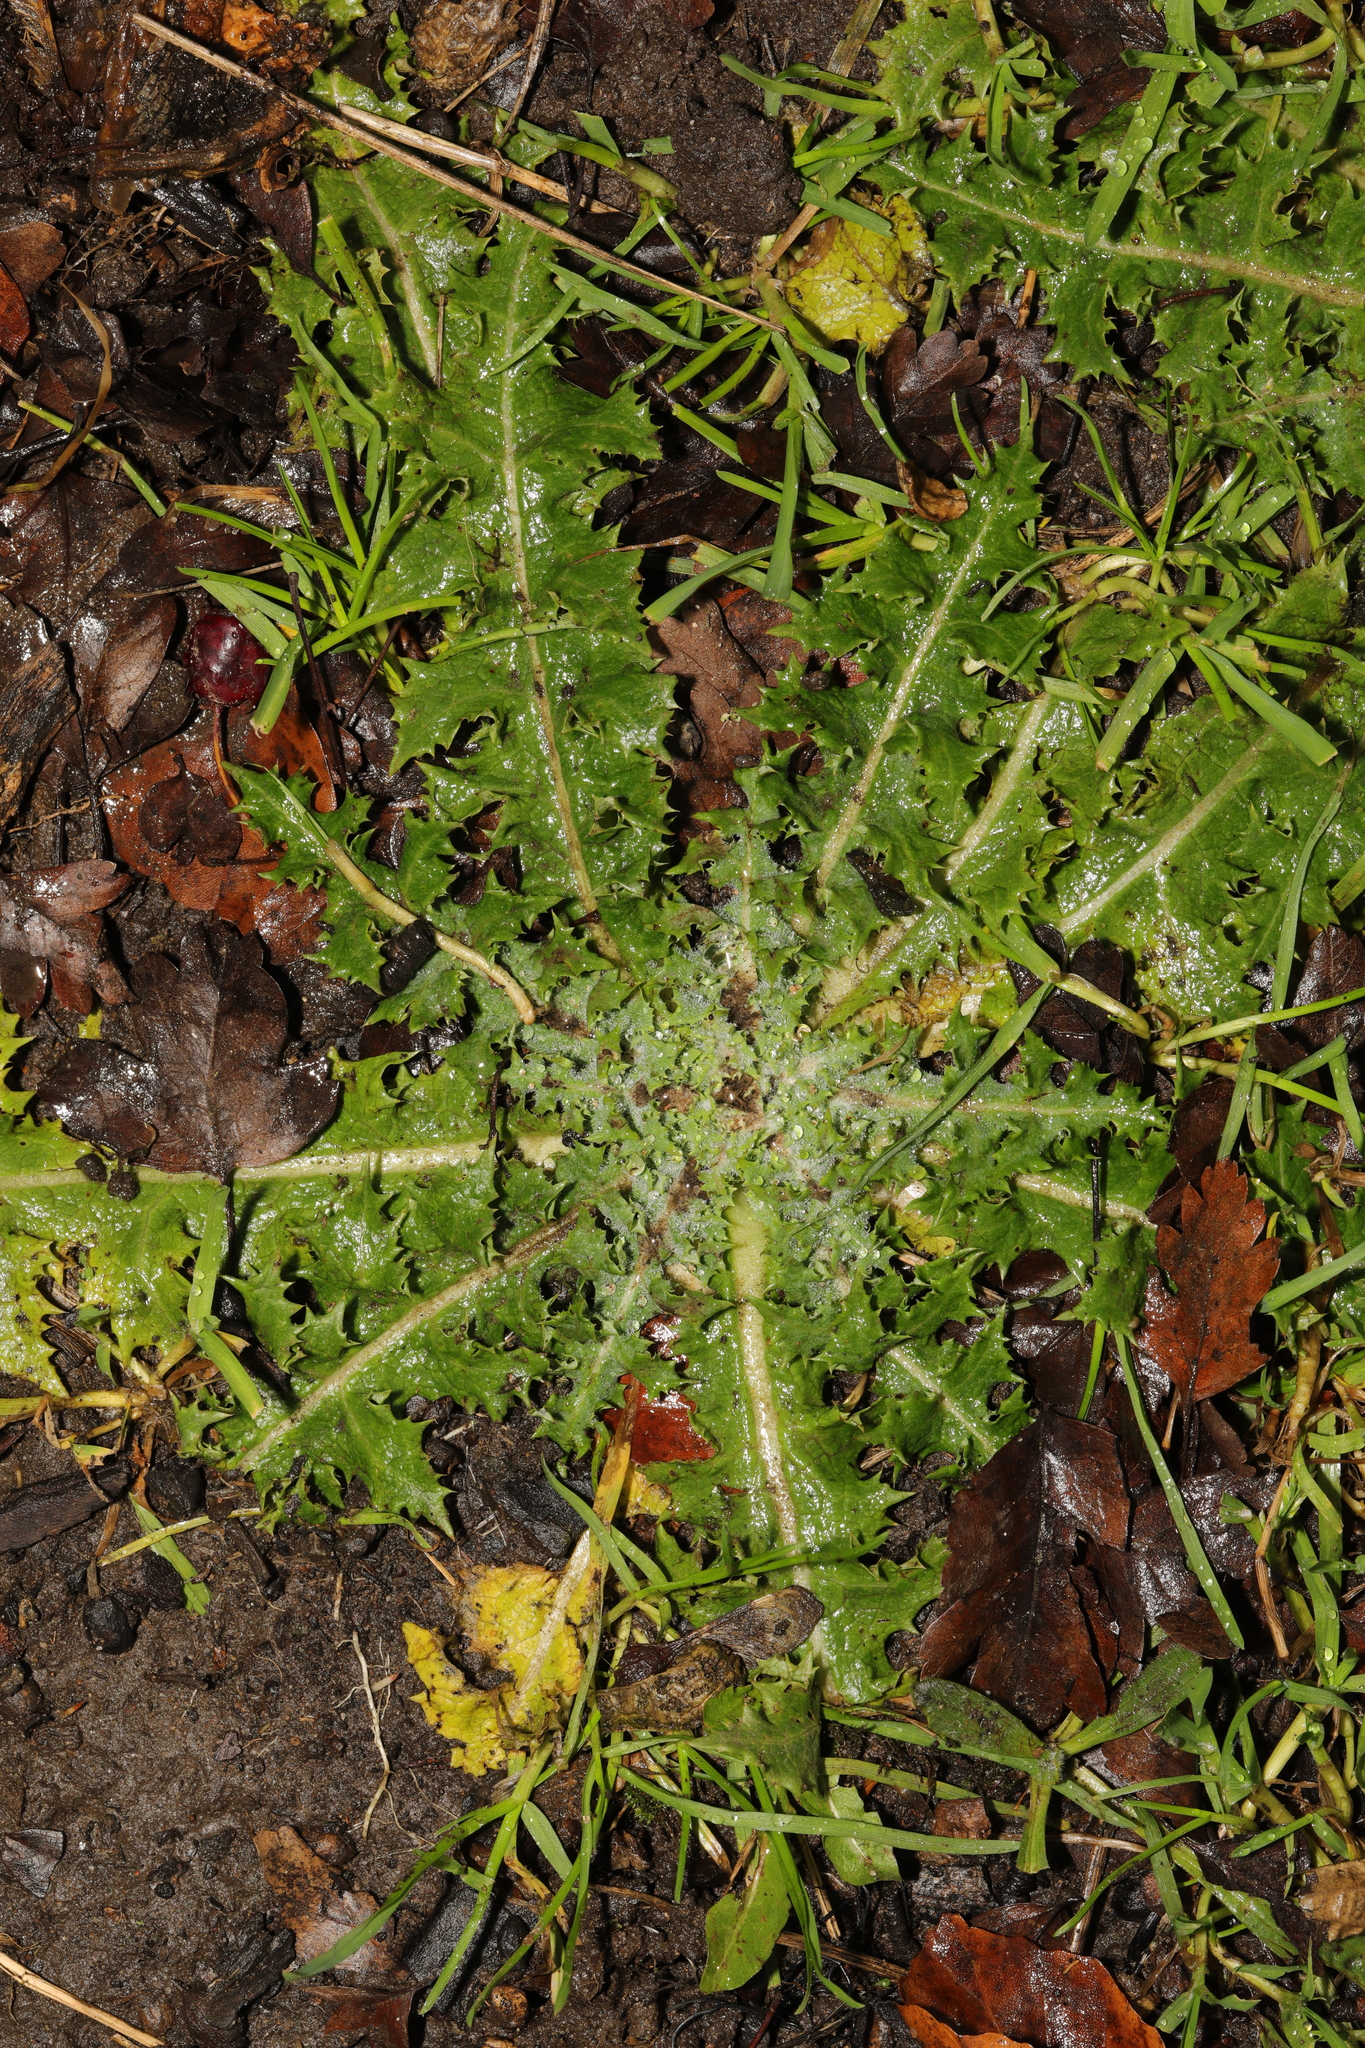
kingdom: Plantae
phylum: Tracheophyta
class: Magnoliopsida
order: Asterales
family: Asteraceae
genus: Sonchus
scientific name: Sonchus asper
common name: Prickly sow-thistle
